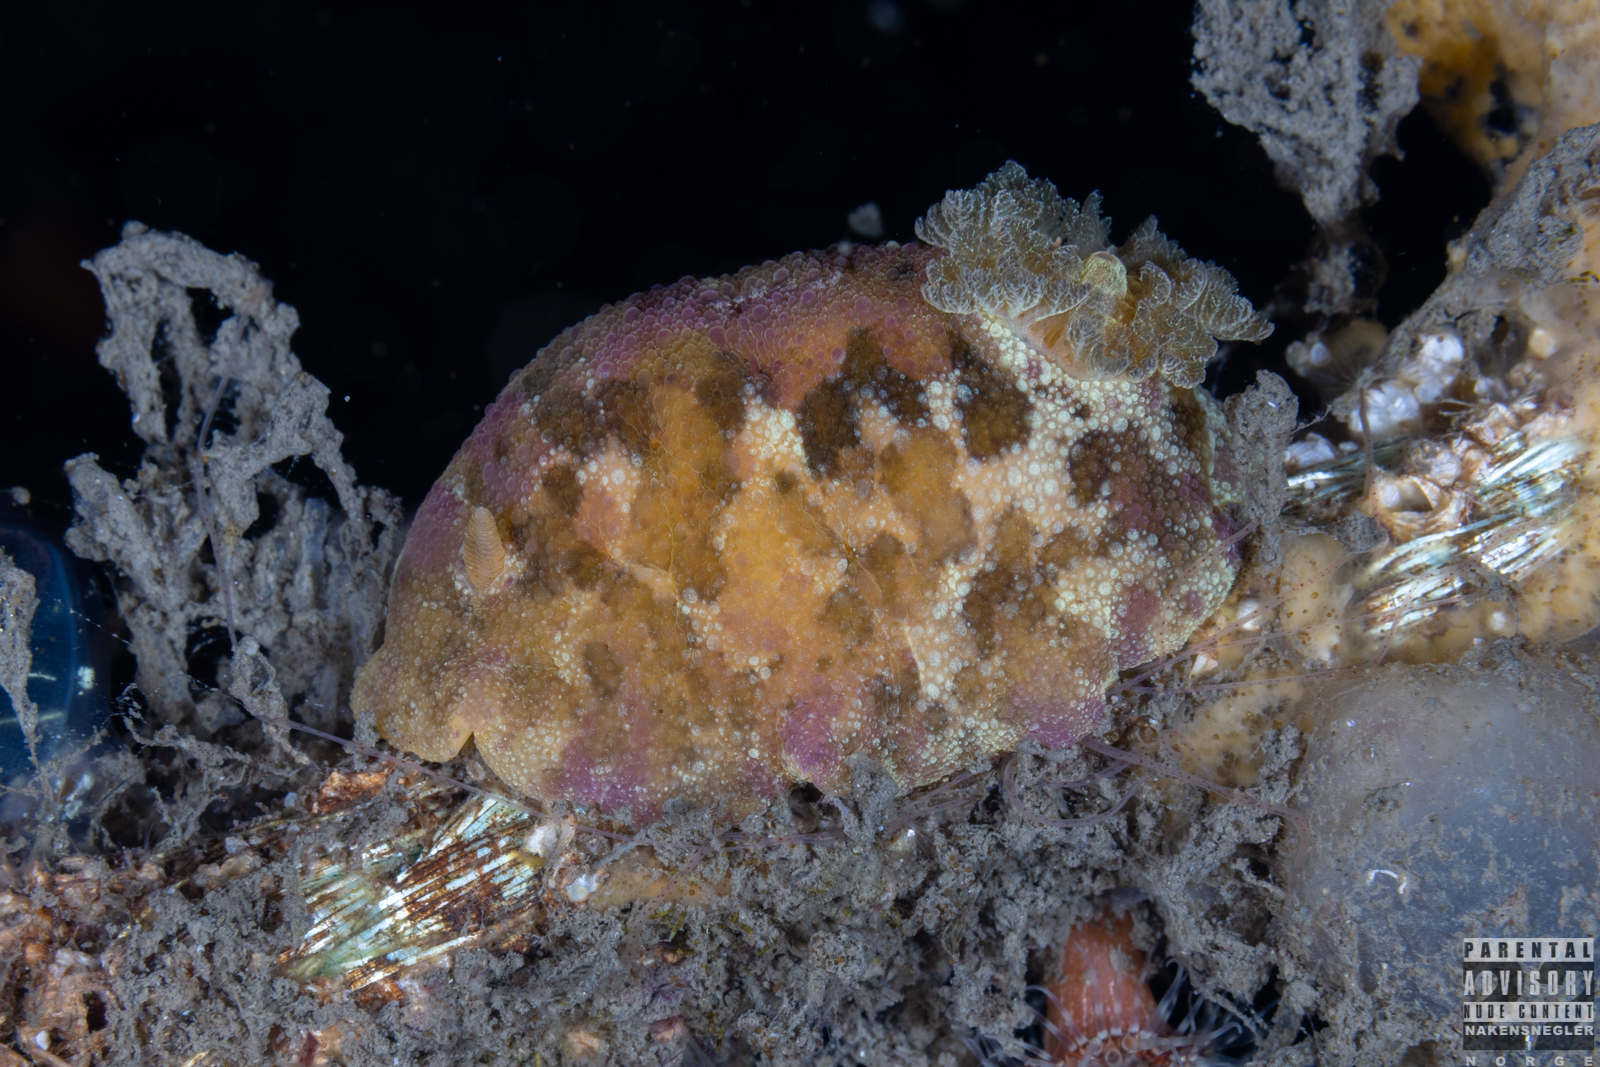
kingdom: Animalia
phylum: Mollusca
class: Gastropoda
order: Nudibranchia
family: Dorididae
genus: Doris
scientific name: Doris pseudoargus
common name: Sea lemon
